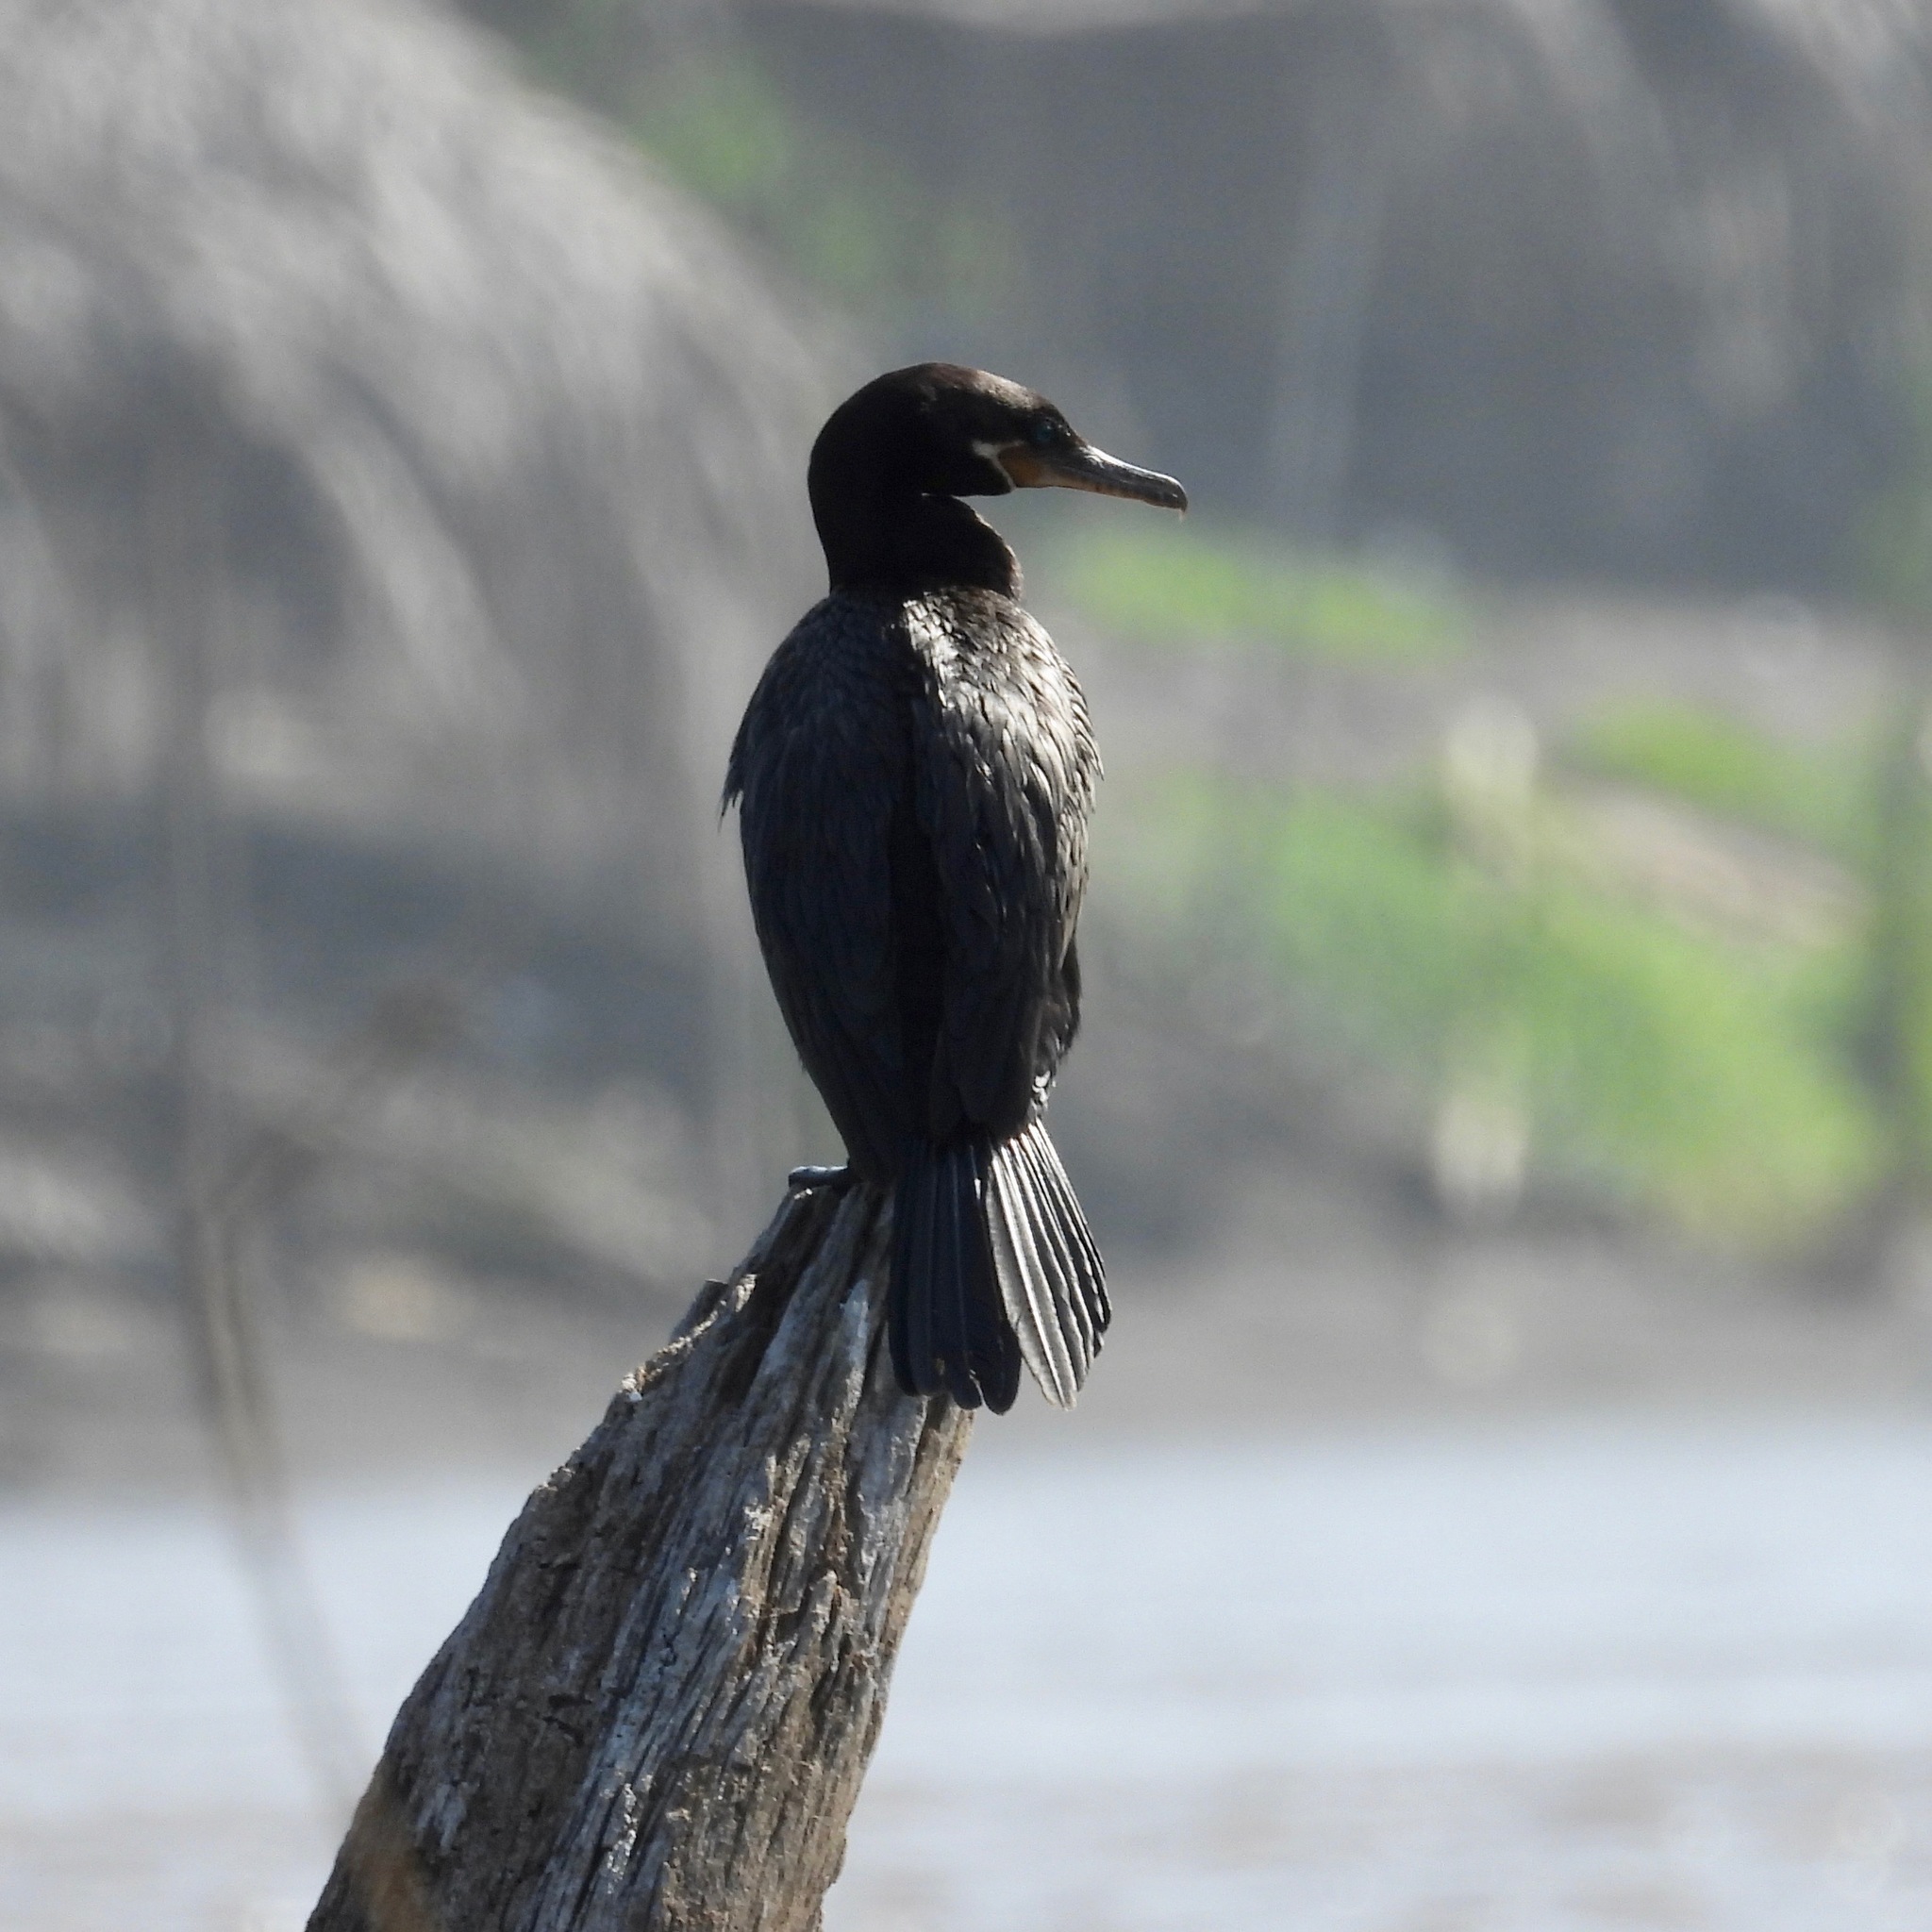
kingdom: Animalia
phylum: Chordata
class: Aves
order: Suliformes
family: Phalacrocoracidae
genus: Phalacrocorax
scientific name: Phalacrocorax brasilianus
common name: Neotropic cormorant
